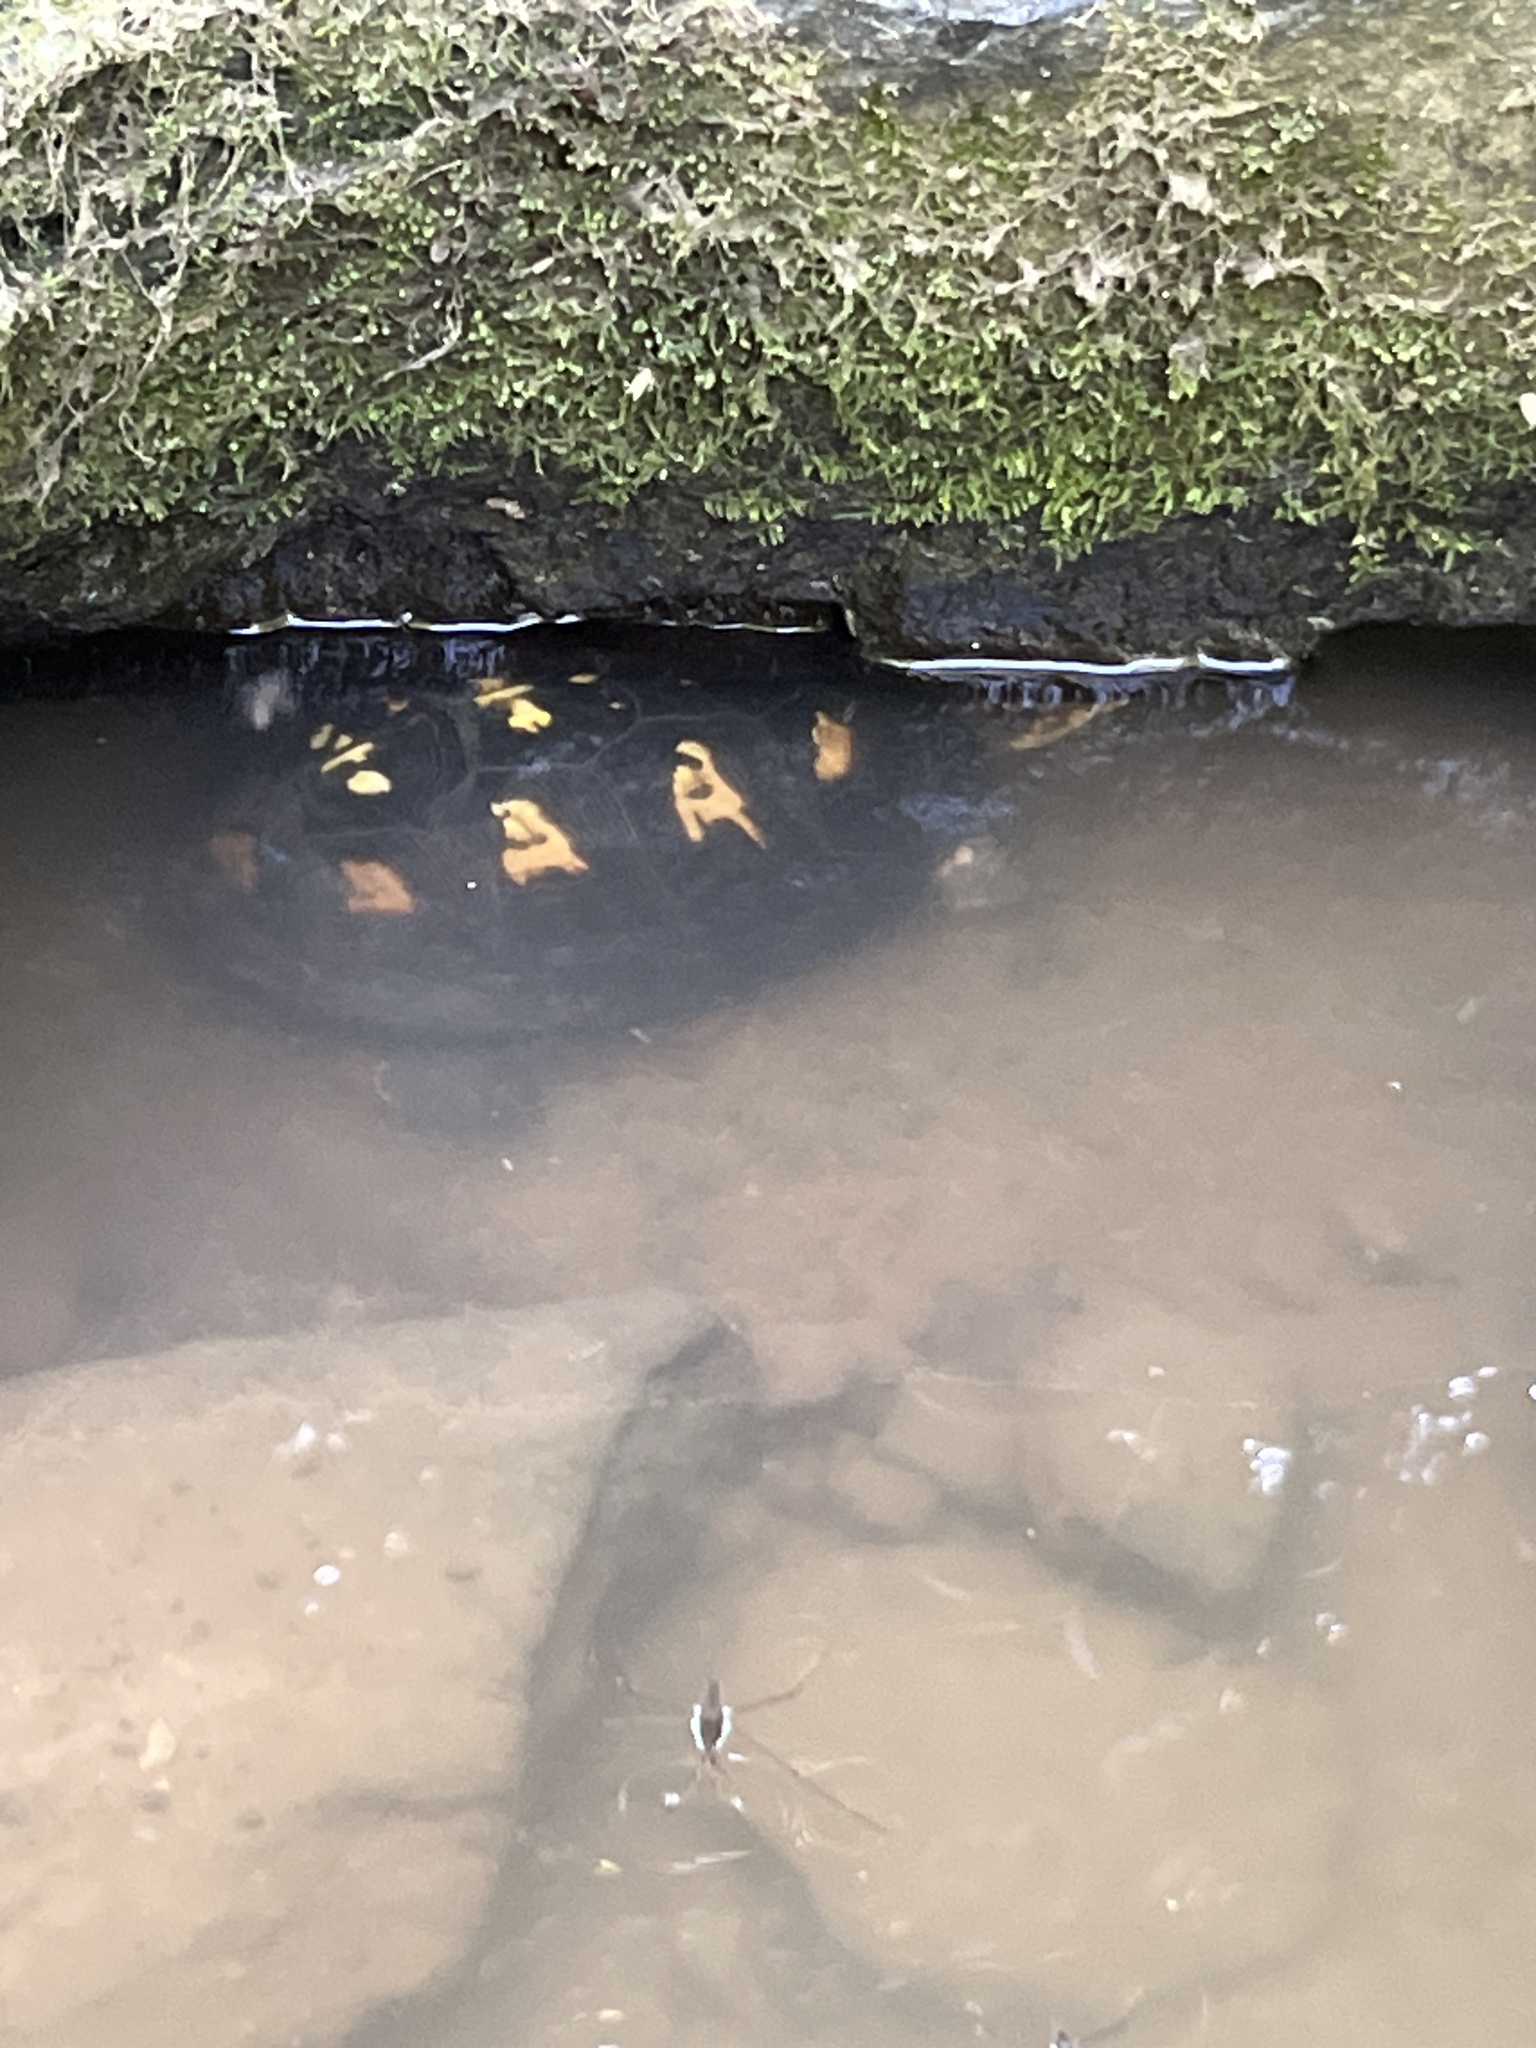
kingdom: Animalia
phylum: Chordata
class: Testudines
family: Emydidae
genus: Terrapene
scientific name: Terrapene carolina
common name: Common box turtle
